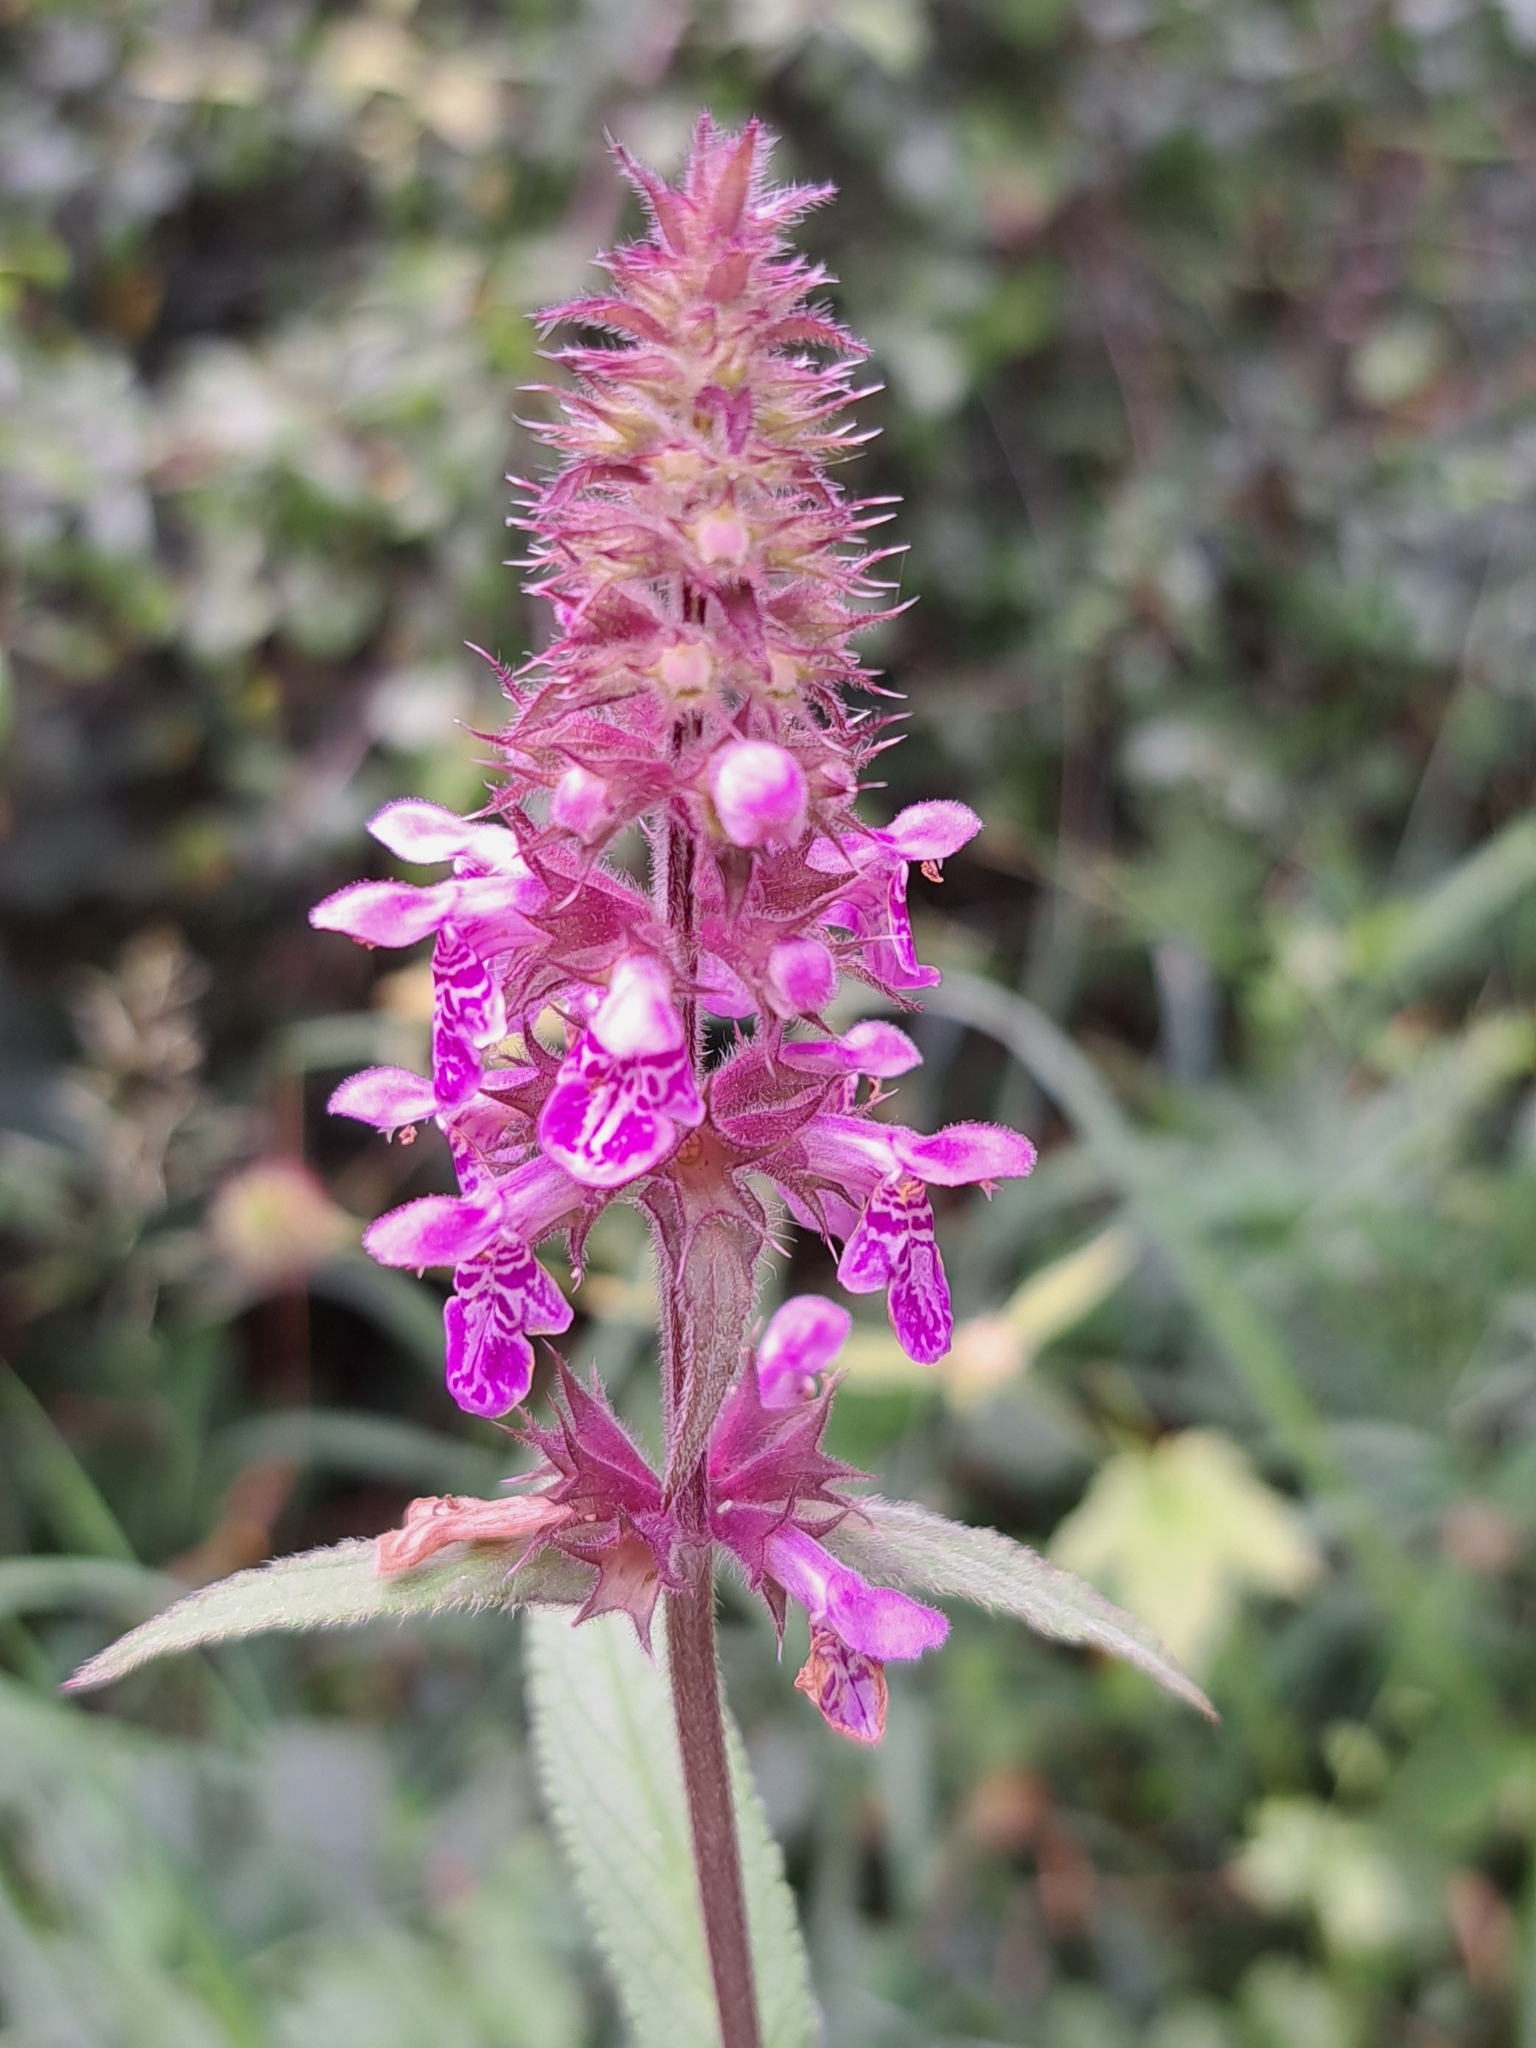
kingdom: Plantae
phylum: Tracheophyta
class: Magnoliopsida
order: Lamiales
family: Lamiaceae
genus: Stachys
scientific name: Stachys palustris
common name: Marsh woundwort
